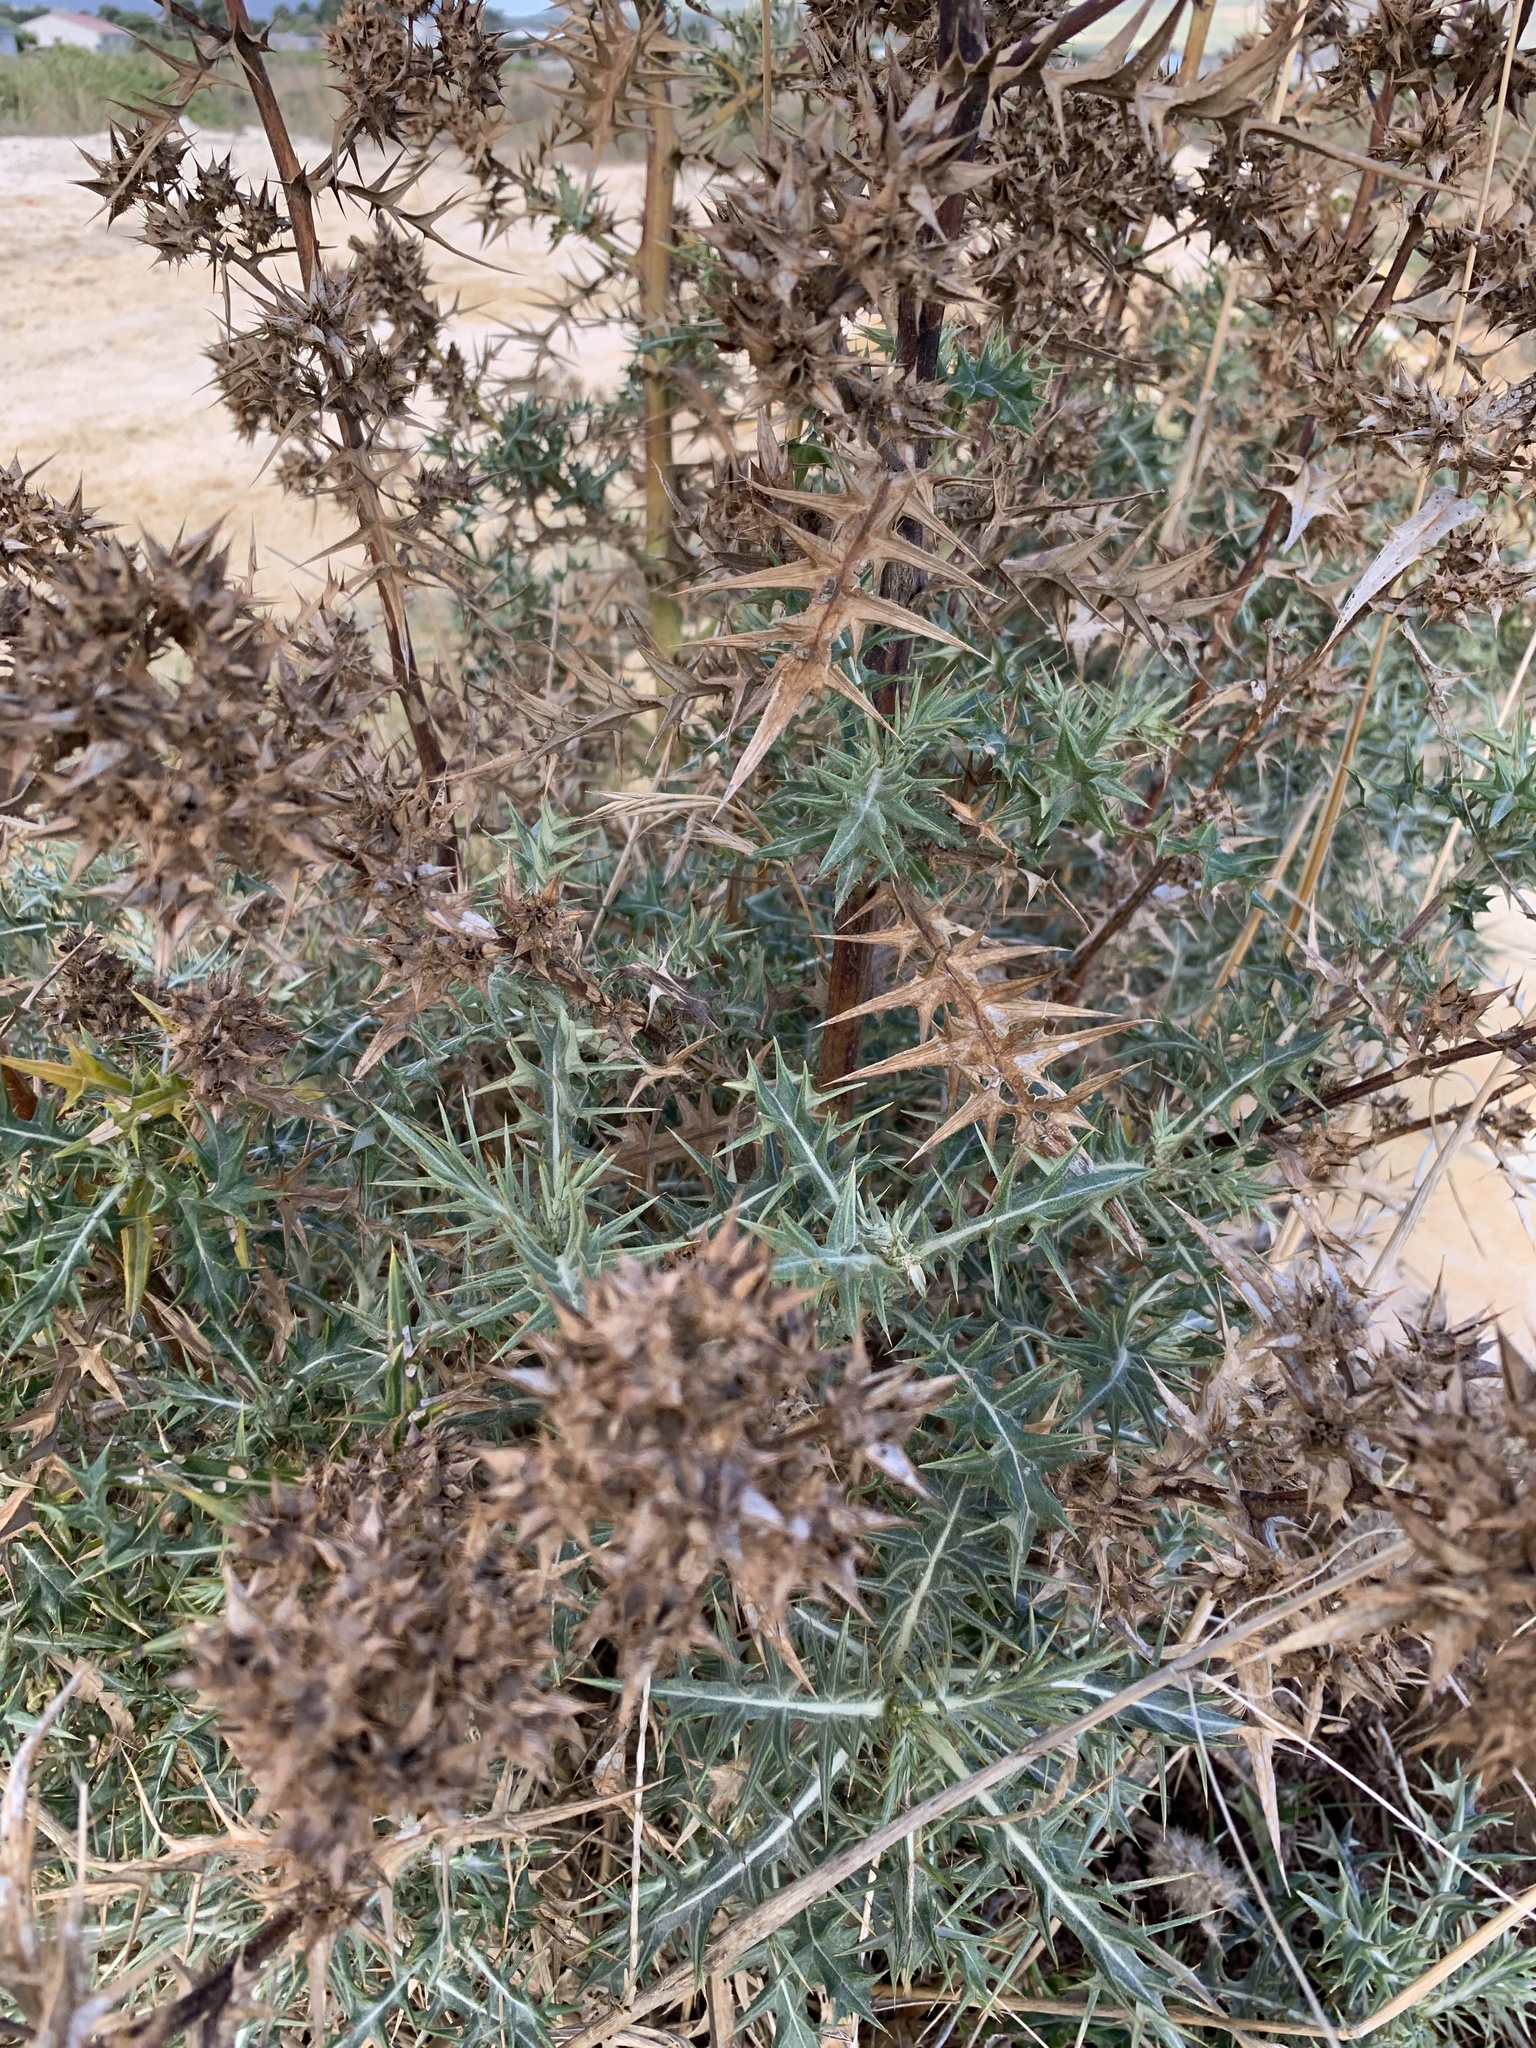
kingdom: Plantae
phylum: Tracheophyta
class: Magnoliopsida
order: Asterales
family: Asteraceae
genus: Berkheya
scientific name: Berkheya rigida
